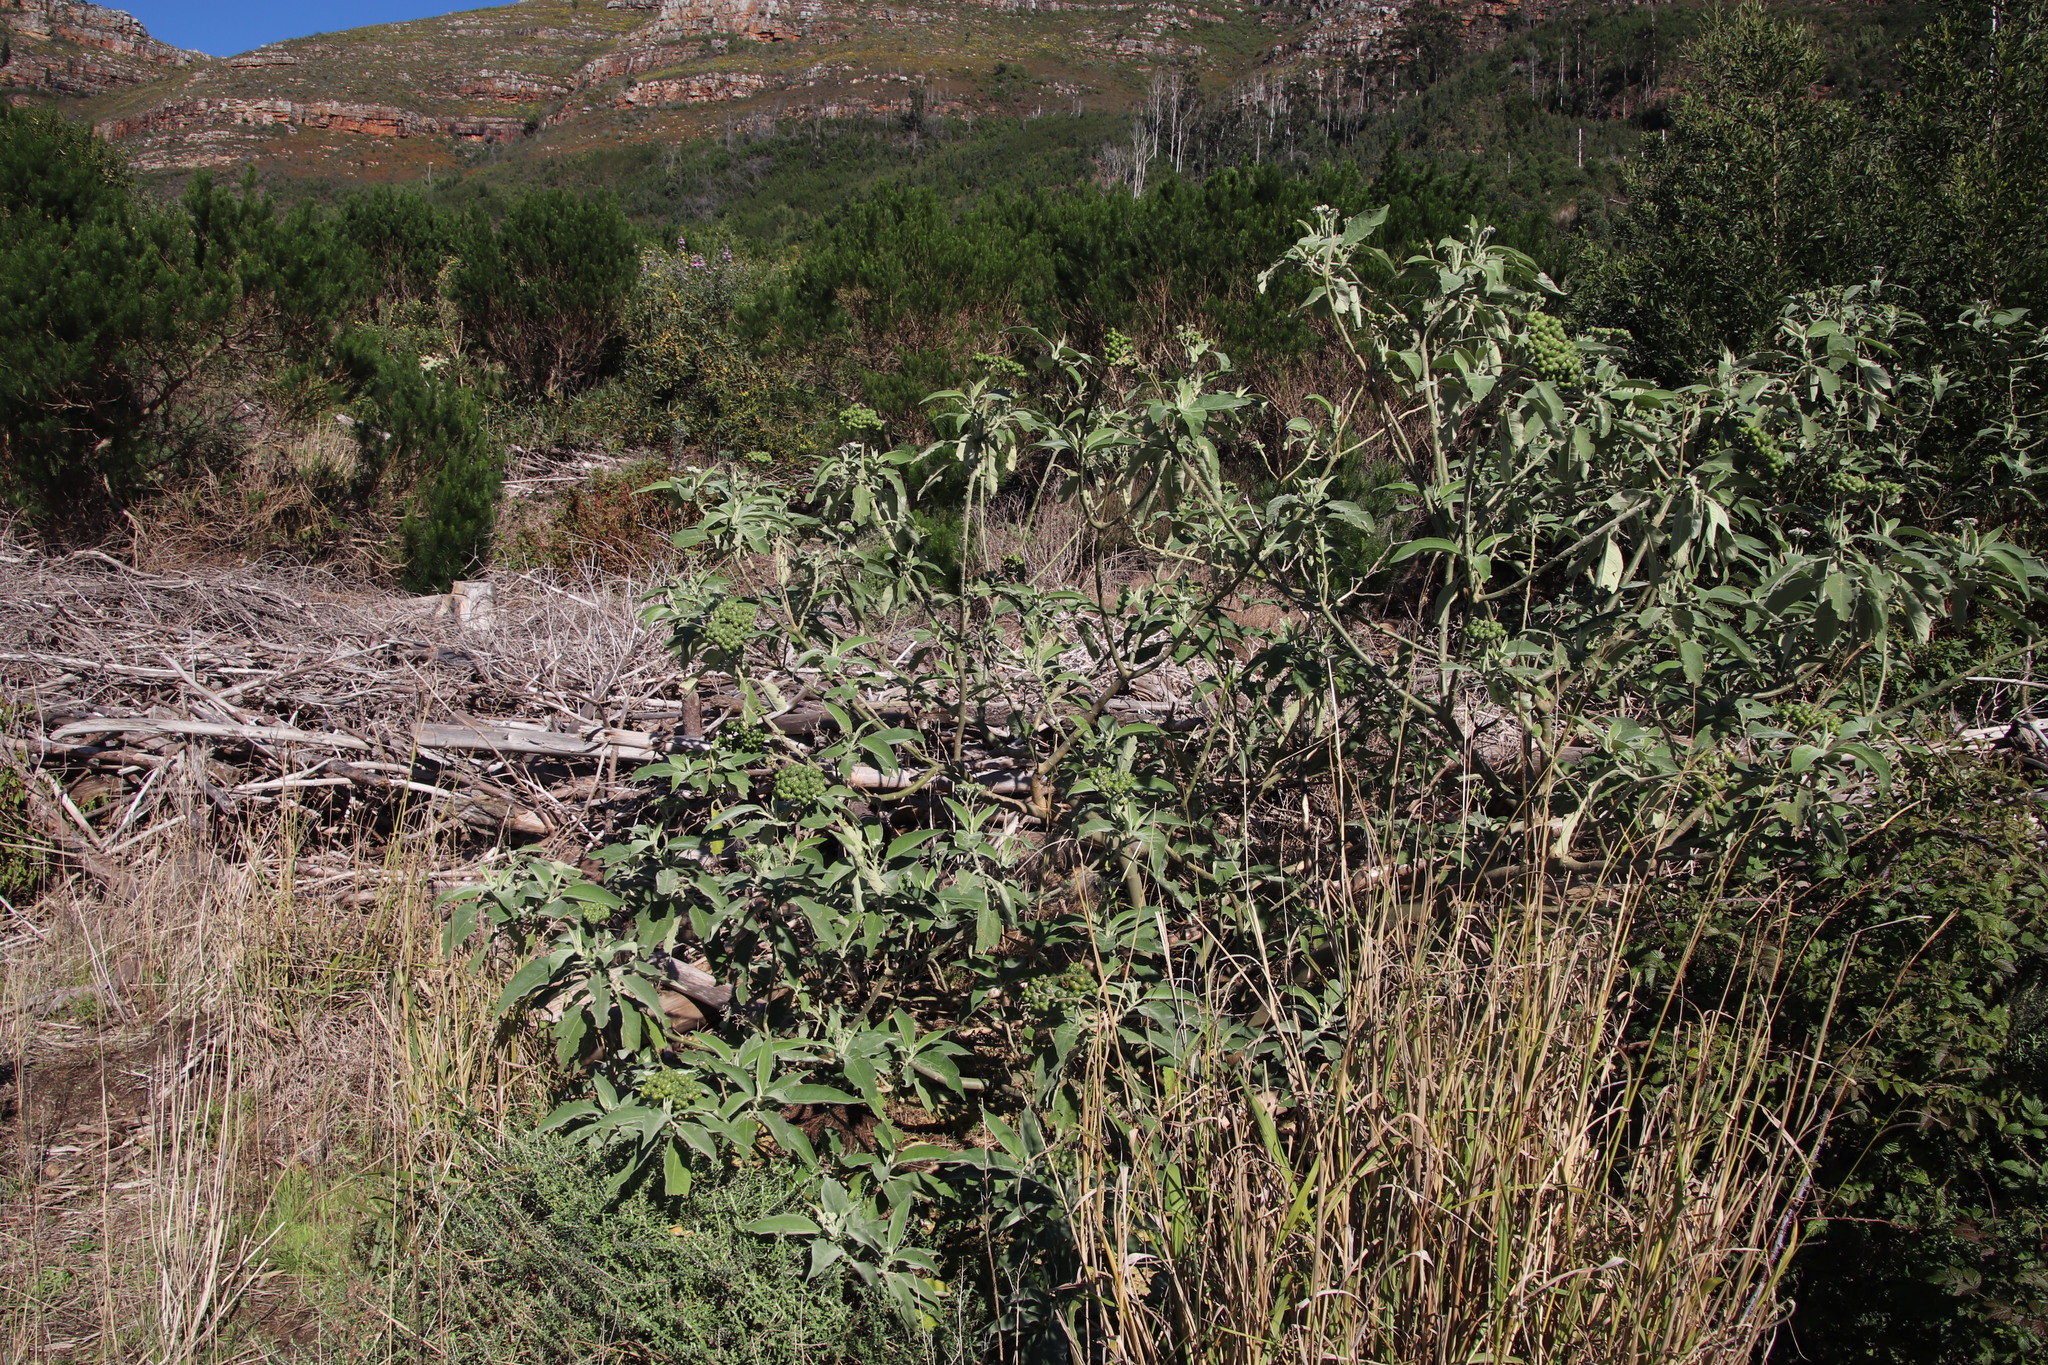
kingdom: Plantae
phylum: Tracheophyta
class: Magnoliopsida
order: Solanales
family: Solanaceae
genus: Solanum
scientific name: Solanum mauritianum
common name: Earleaf nightshade
